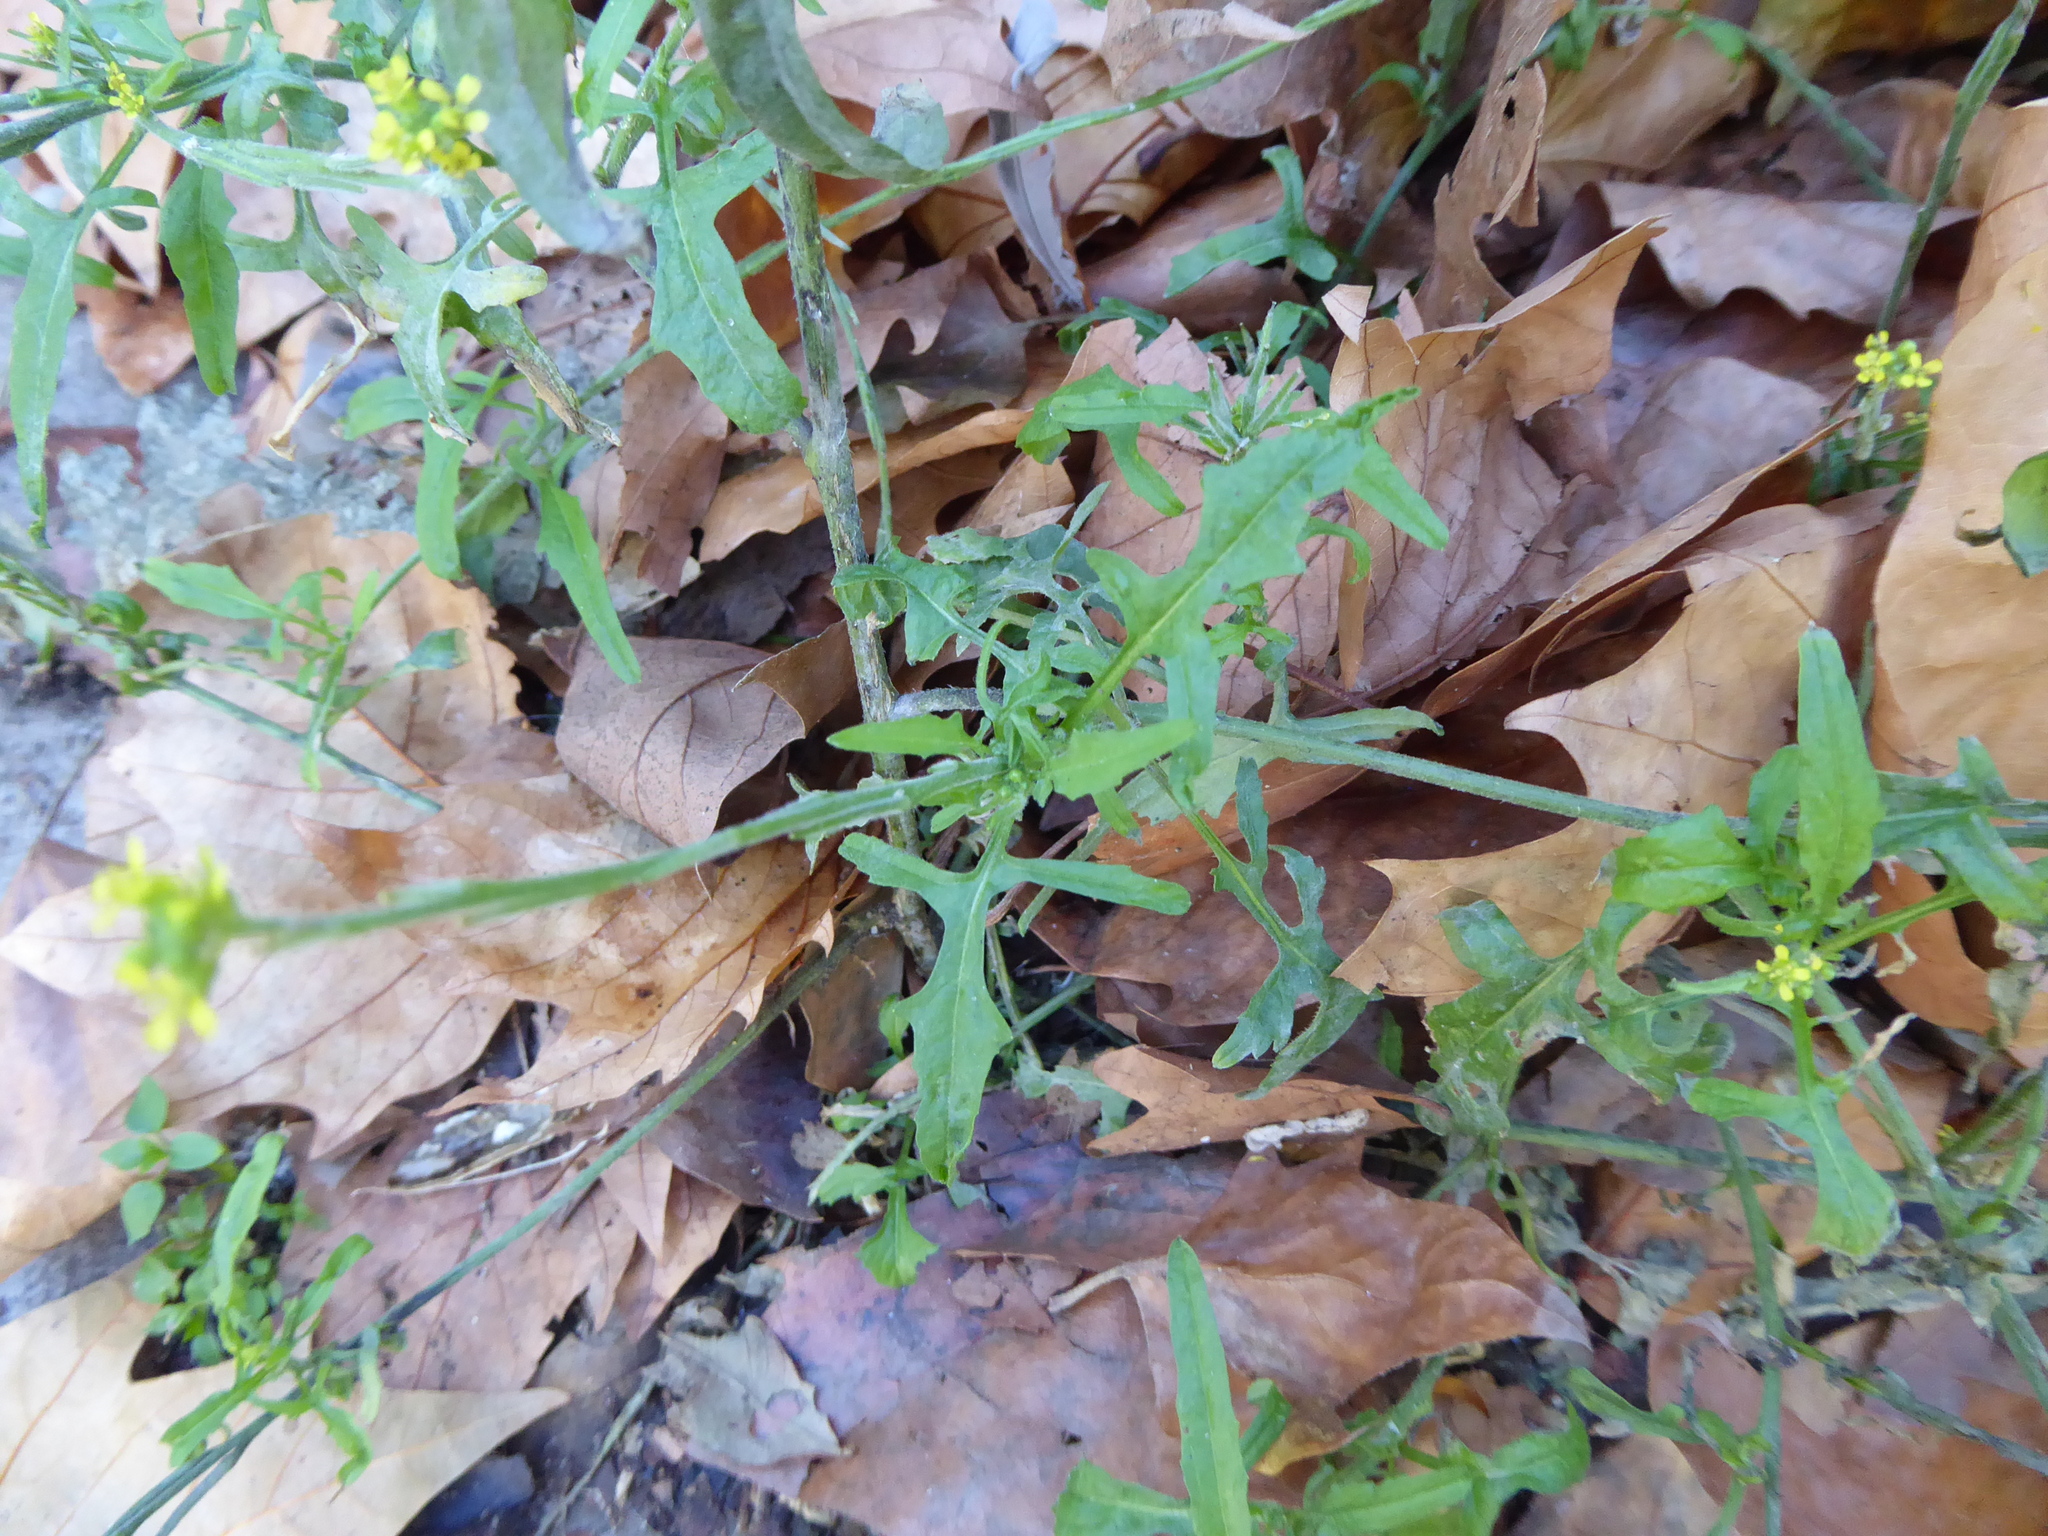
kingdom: Plantae
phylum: Tracheophyta
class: Magnoliopsida
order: Brassicales
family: Brassicaceae
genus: Sisymbrium
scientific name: Sisymbrium officinale
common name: Hedge mustard
